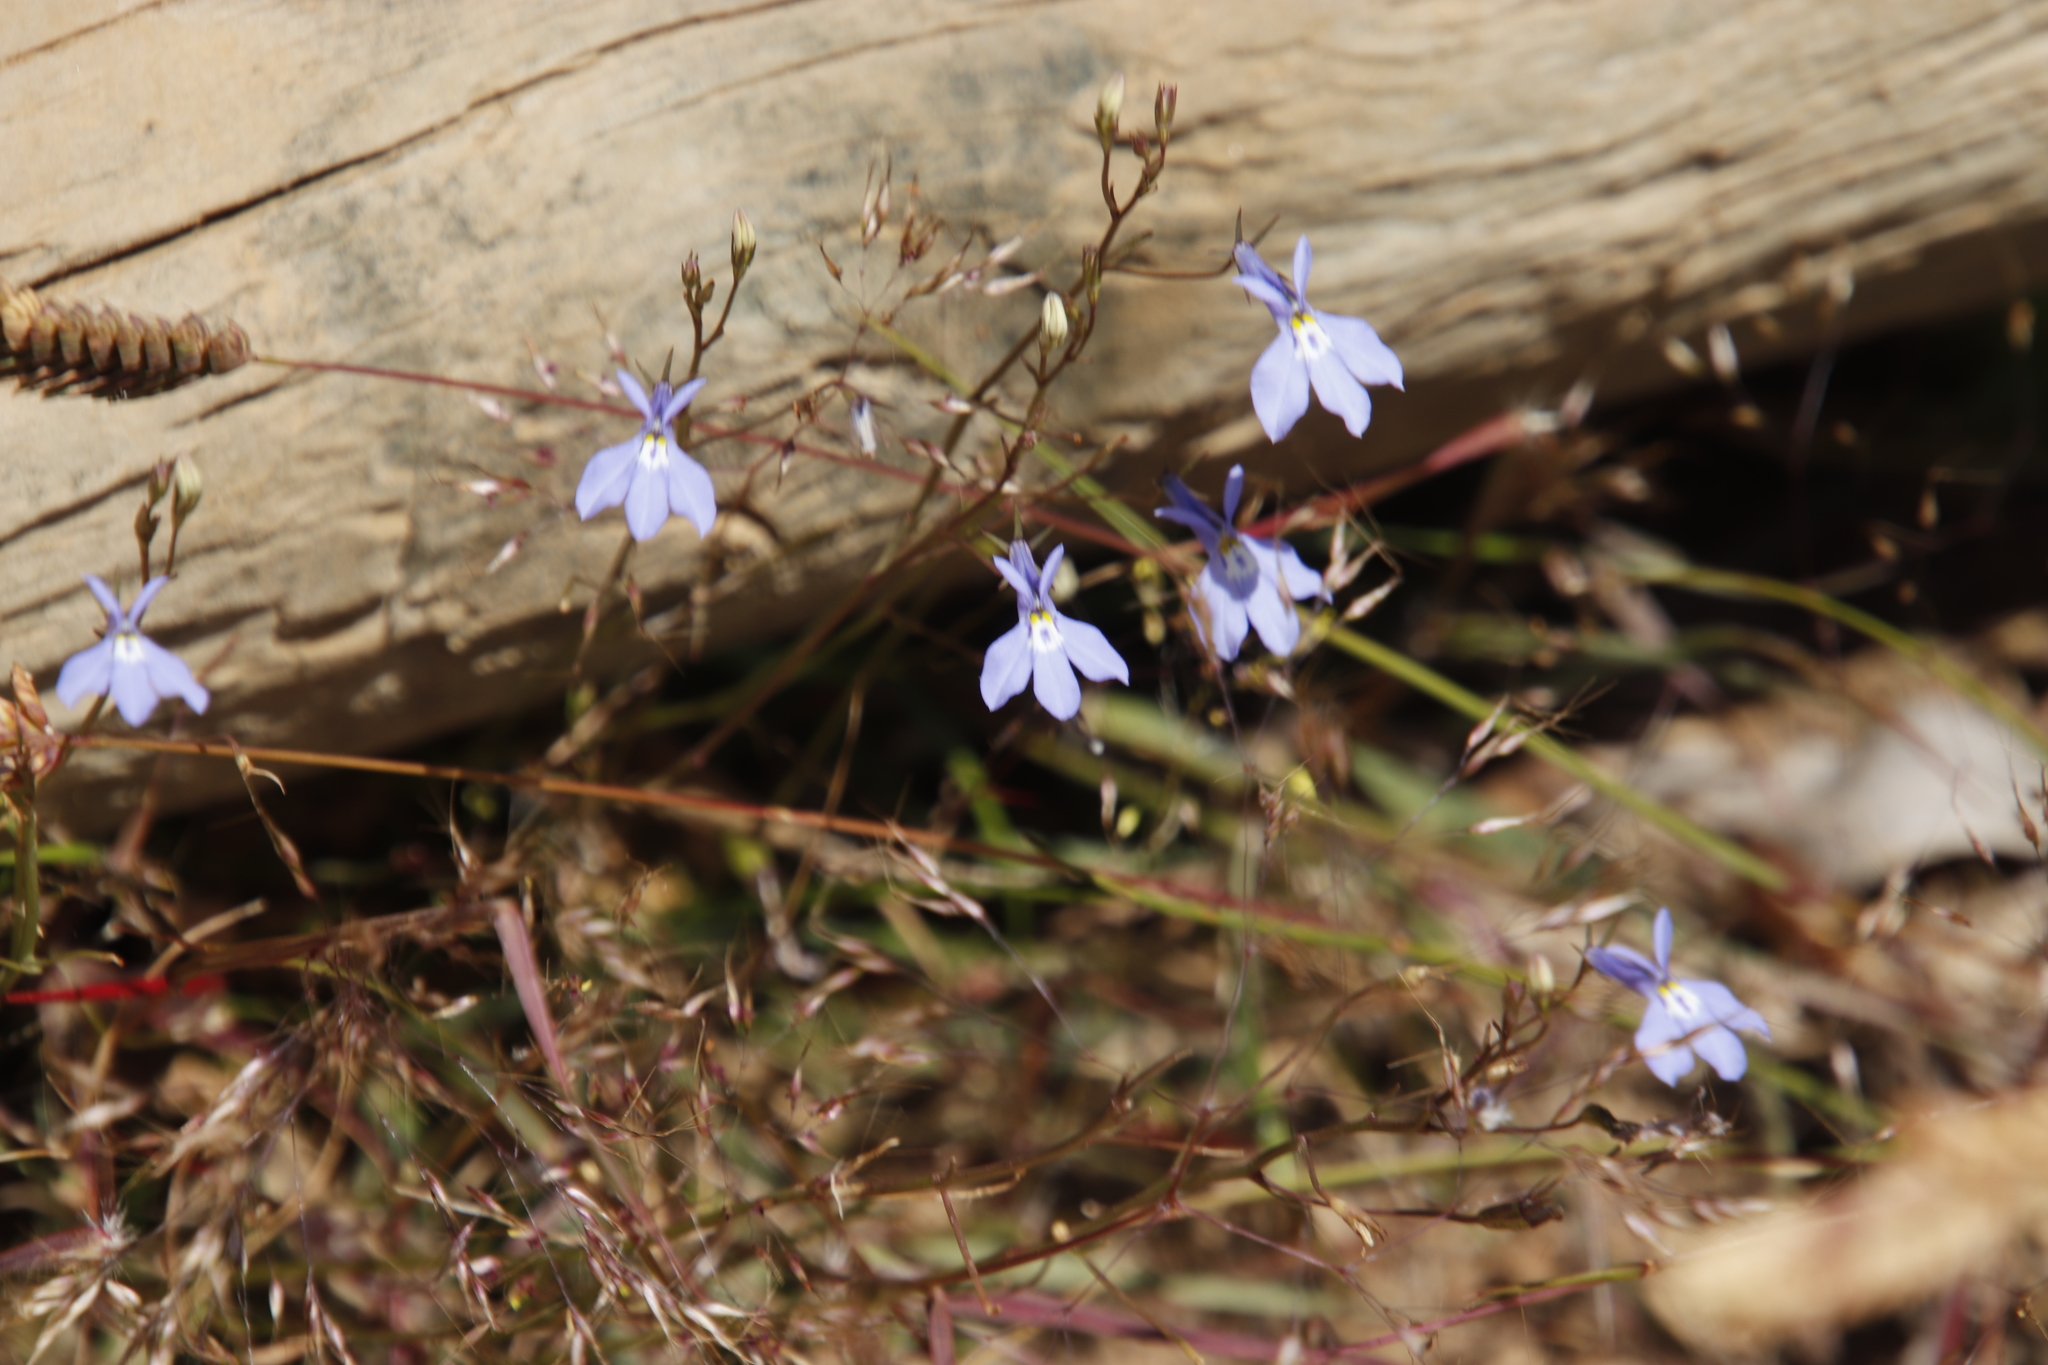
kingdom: Plantae
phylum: Tracheophyta
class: Magnoliopsida
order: Asterales
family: Campanulaceae
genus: Lobelia
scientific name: Lobelia erinus
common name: Edging lobelia
